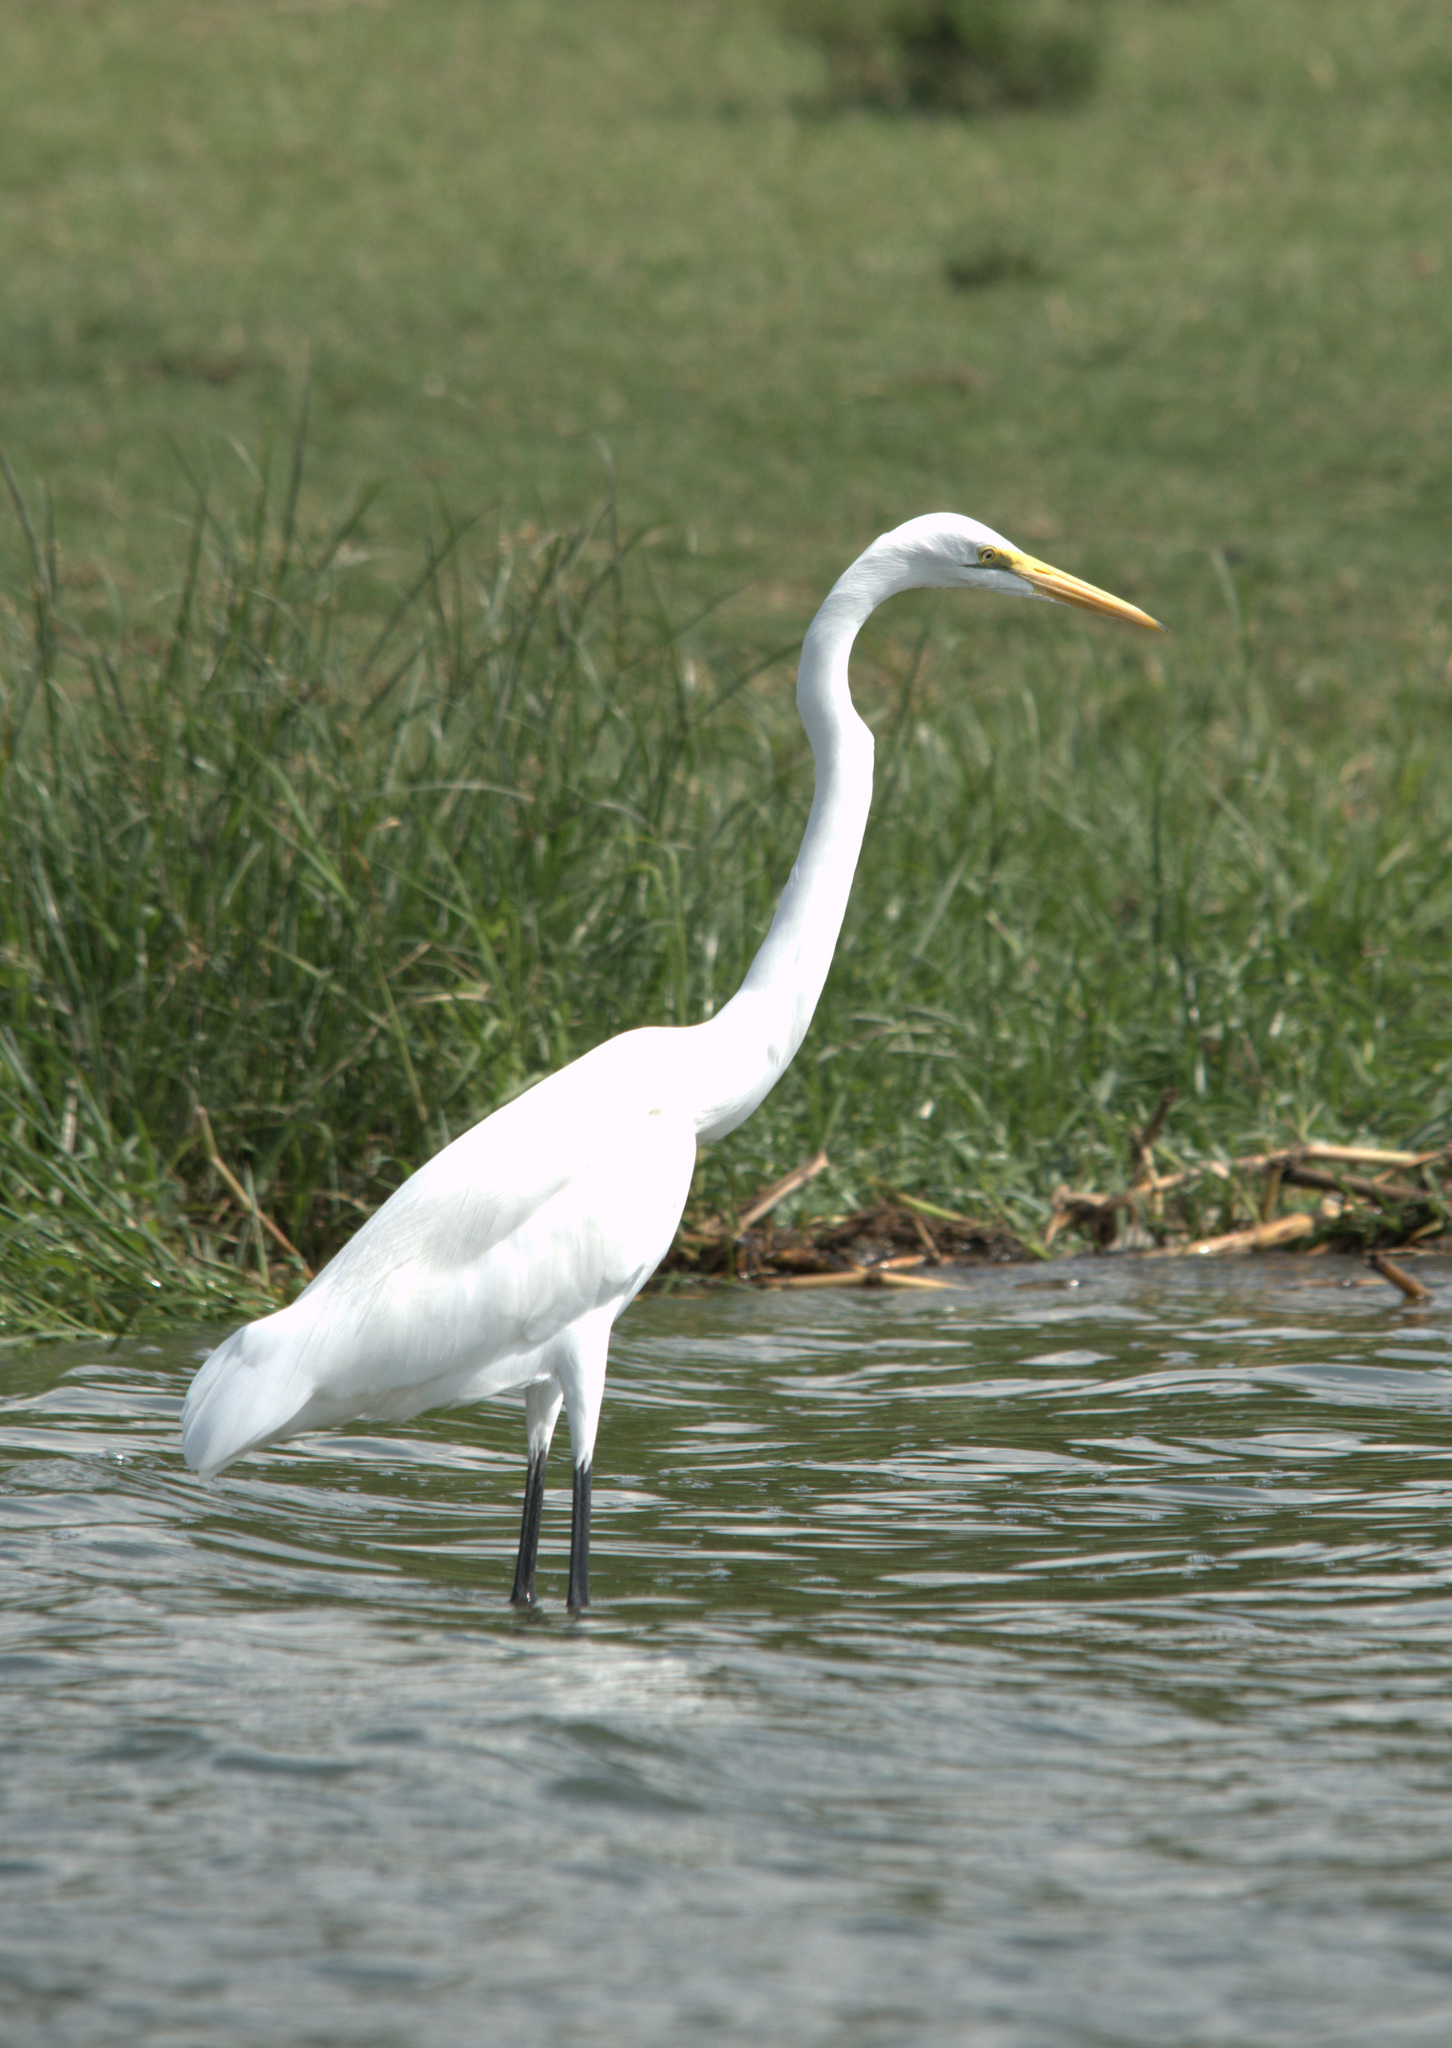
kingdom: Animalia
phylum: Chordata
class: Aves
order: Pelecaniformes
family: Ardeidae
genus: Ardea
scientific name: Ardea alba
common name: Great egret
